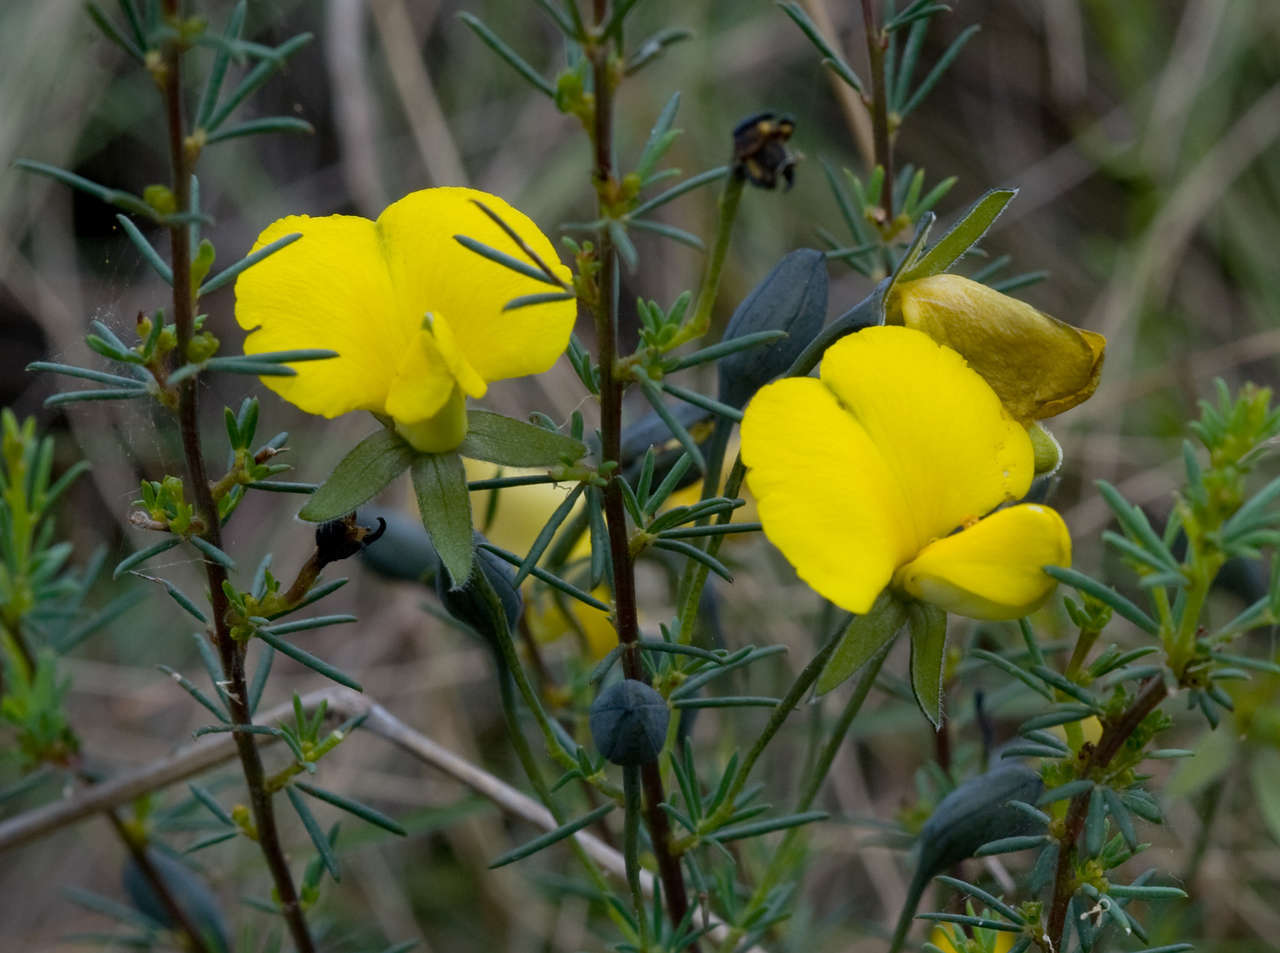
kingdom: Plantae
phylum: Tracheophyta
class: Magnoliopsida
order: Fabales
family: Fabaceae
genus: Gompholobium
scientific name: Gompholobium huegelii
